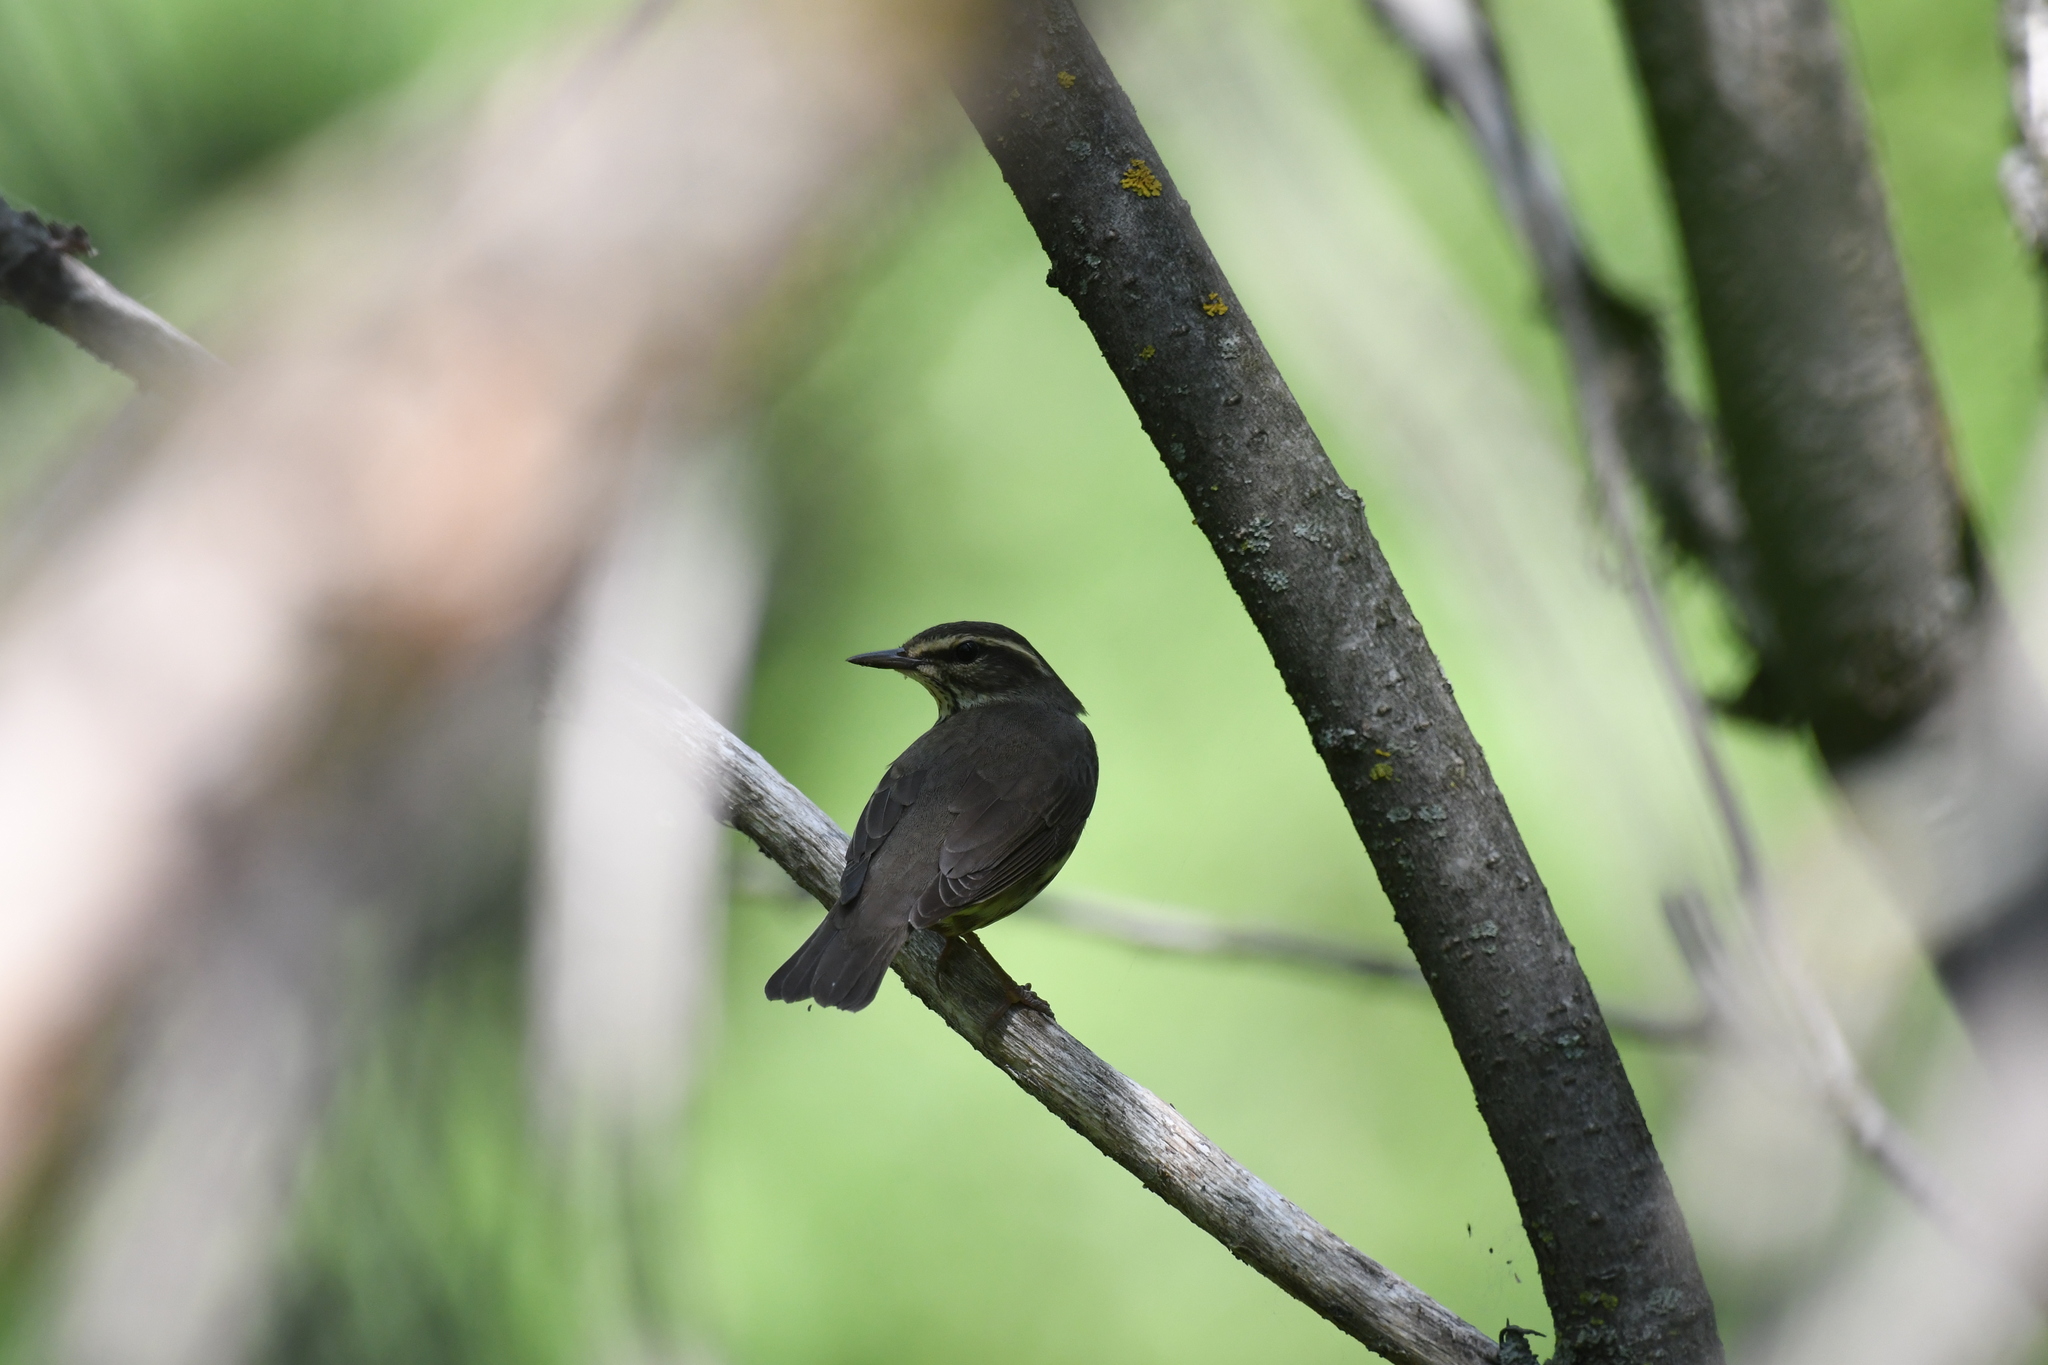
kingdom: Animalia
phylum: Chordata
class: Aves
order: Passeriformes
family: Parulidae
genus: Parkesia
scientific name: Parkesia noveboracensis
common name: Northern waterthrush
